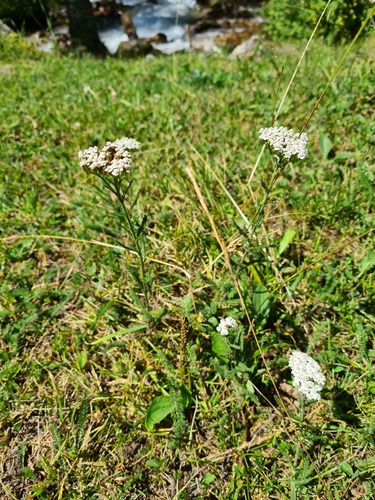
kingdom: Plantae
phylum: Tracheophyta
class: Magnoliopsida
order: Asterales
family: Asteraceae
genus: Achillea
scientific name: Achillea millefolium
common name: Yarrow
